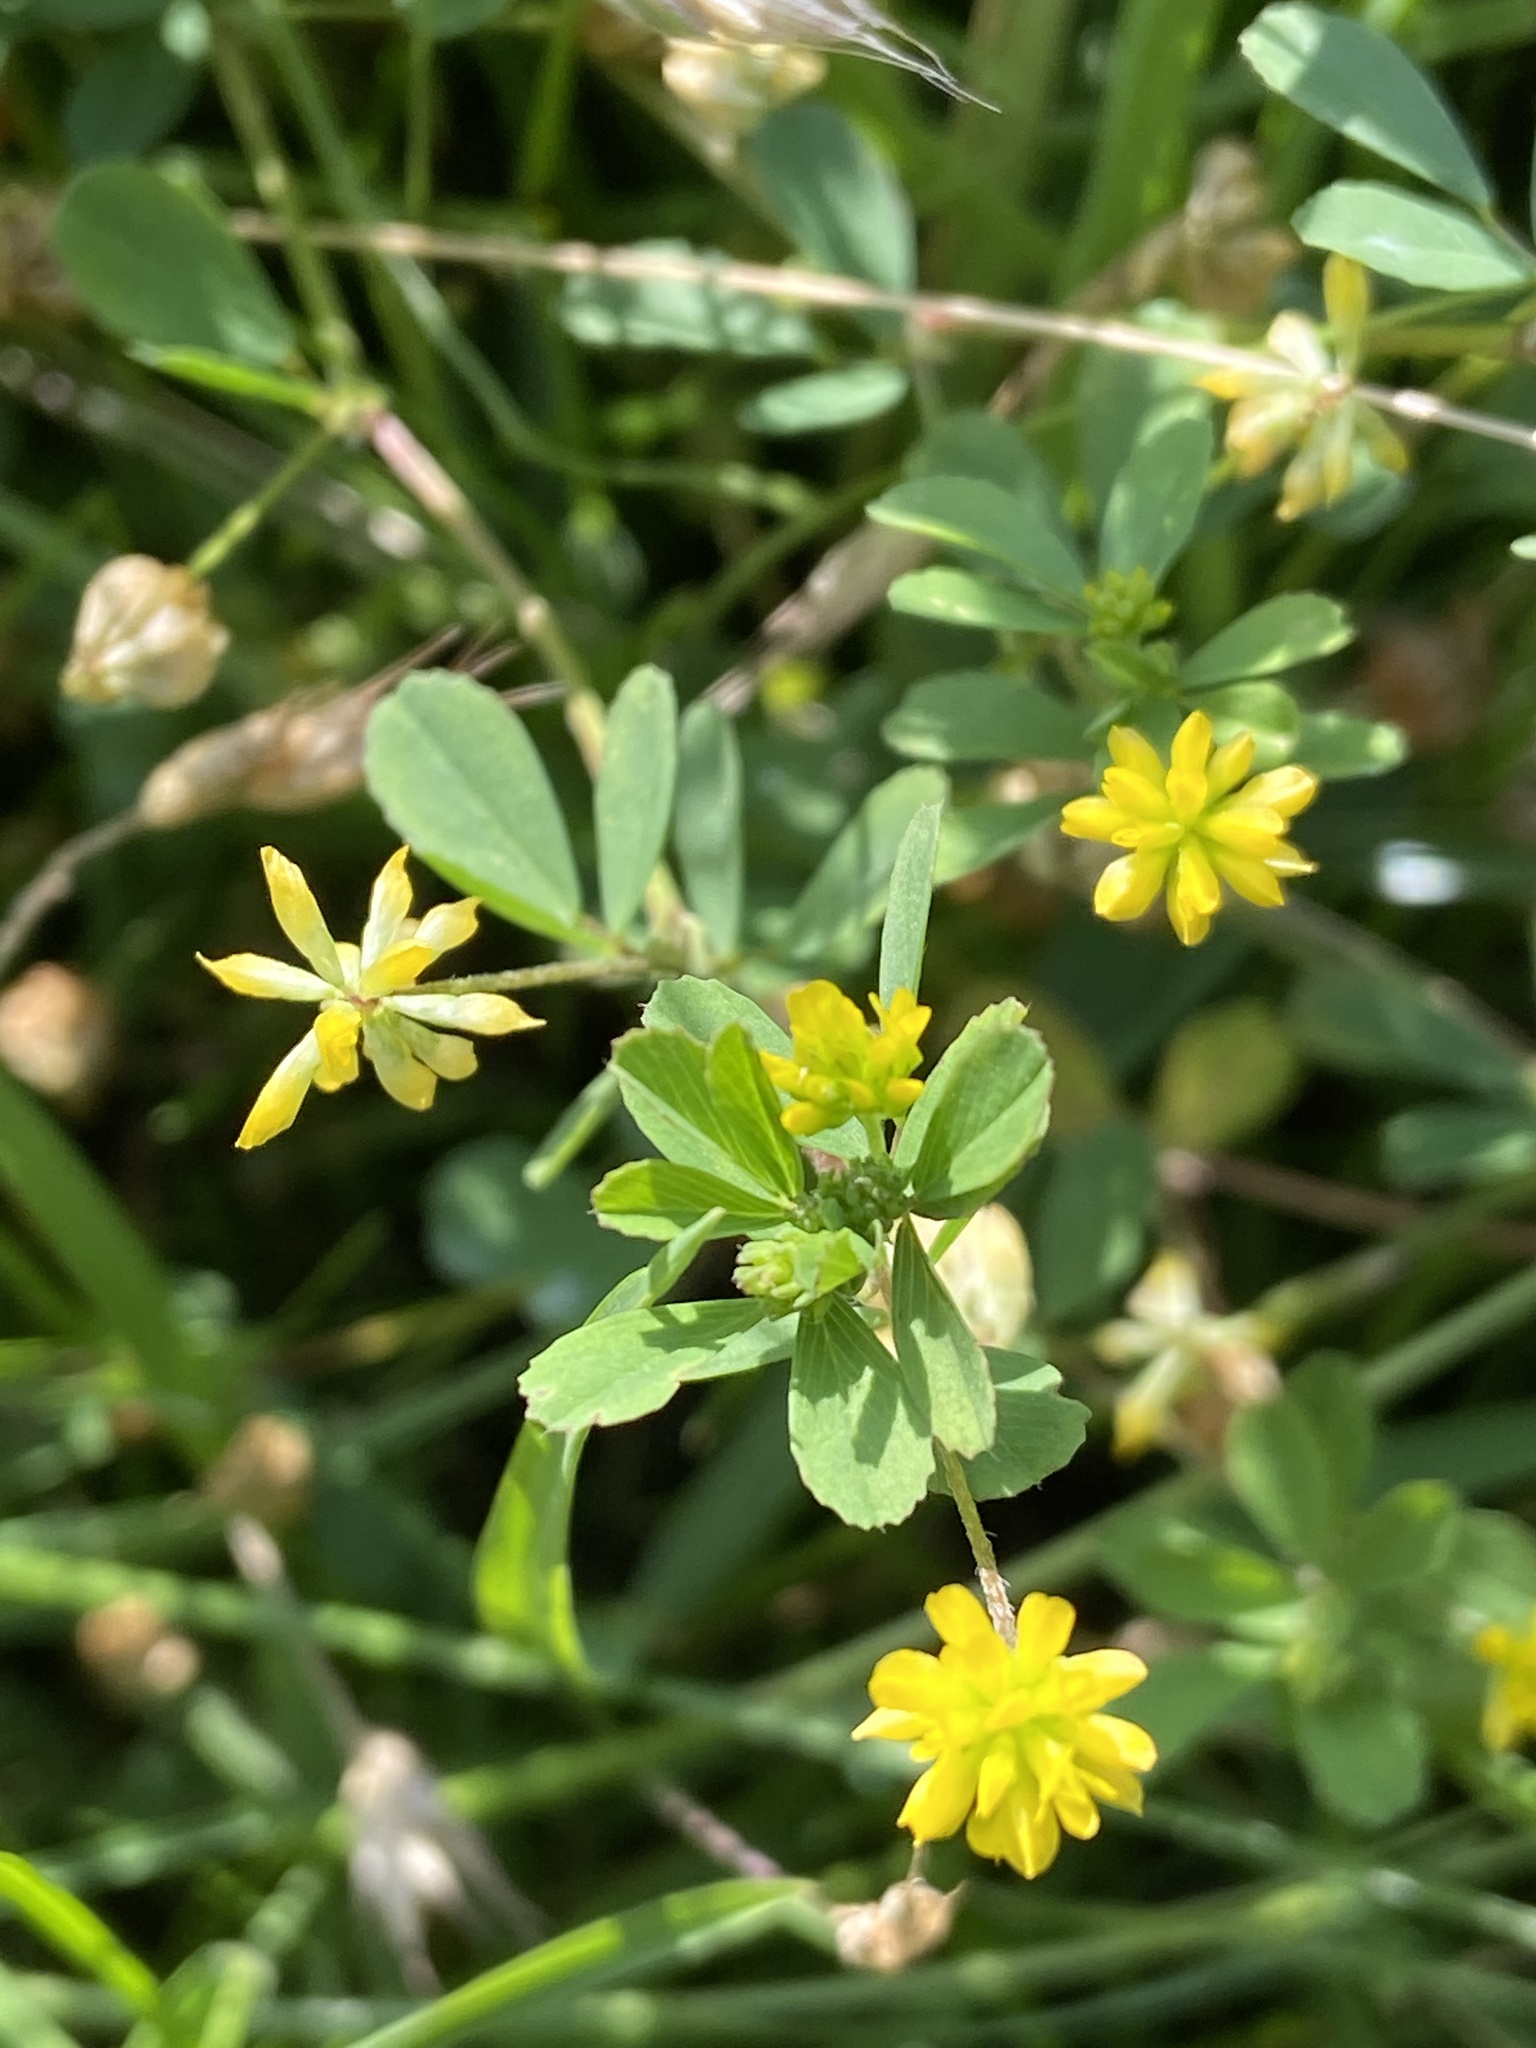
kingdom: Plantae
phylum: Tracheophyta
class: Magnoliopsida
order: Fabales
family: Fabaceae
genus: Trifolium
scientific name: Trifolium dubium
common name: Suckling clover
